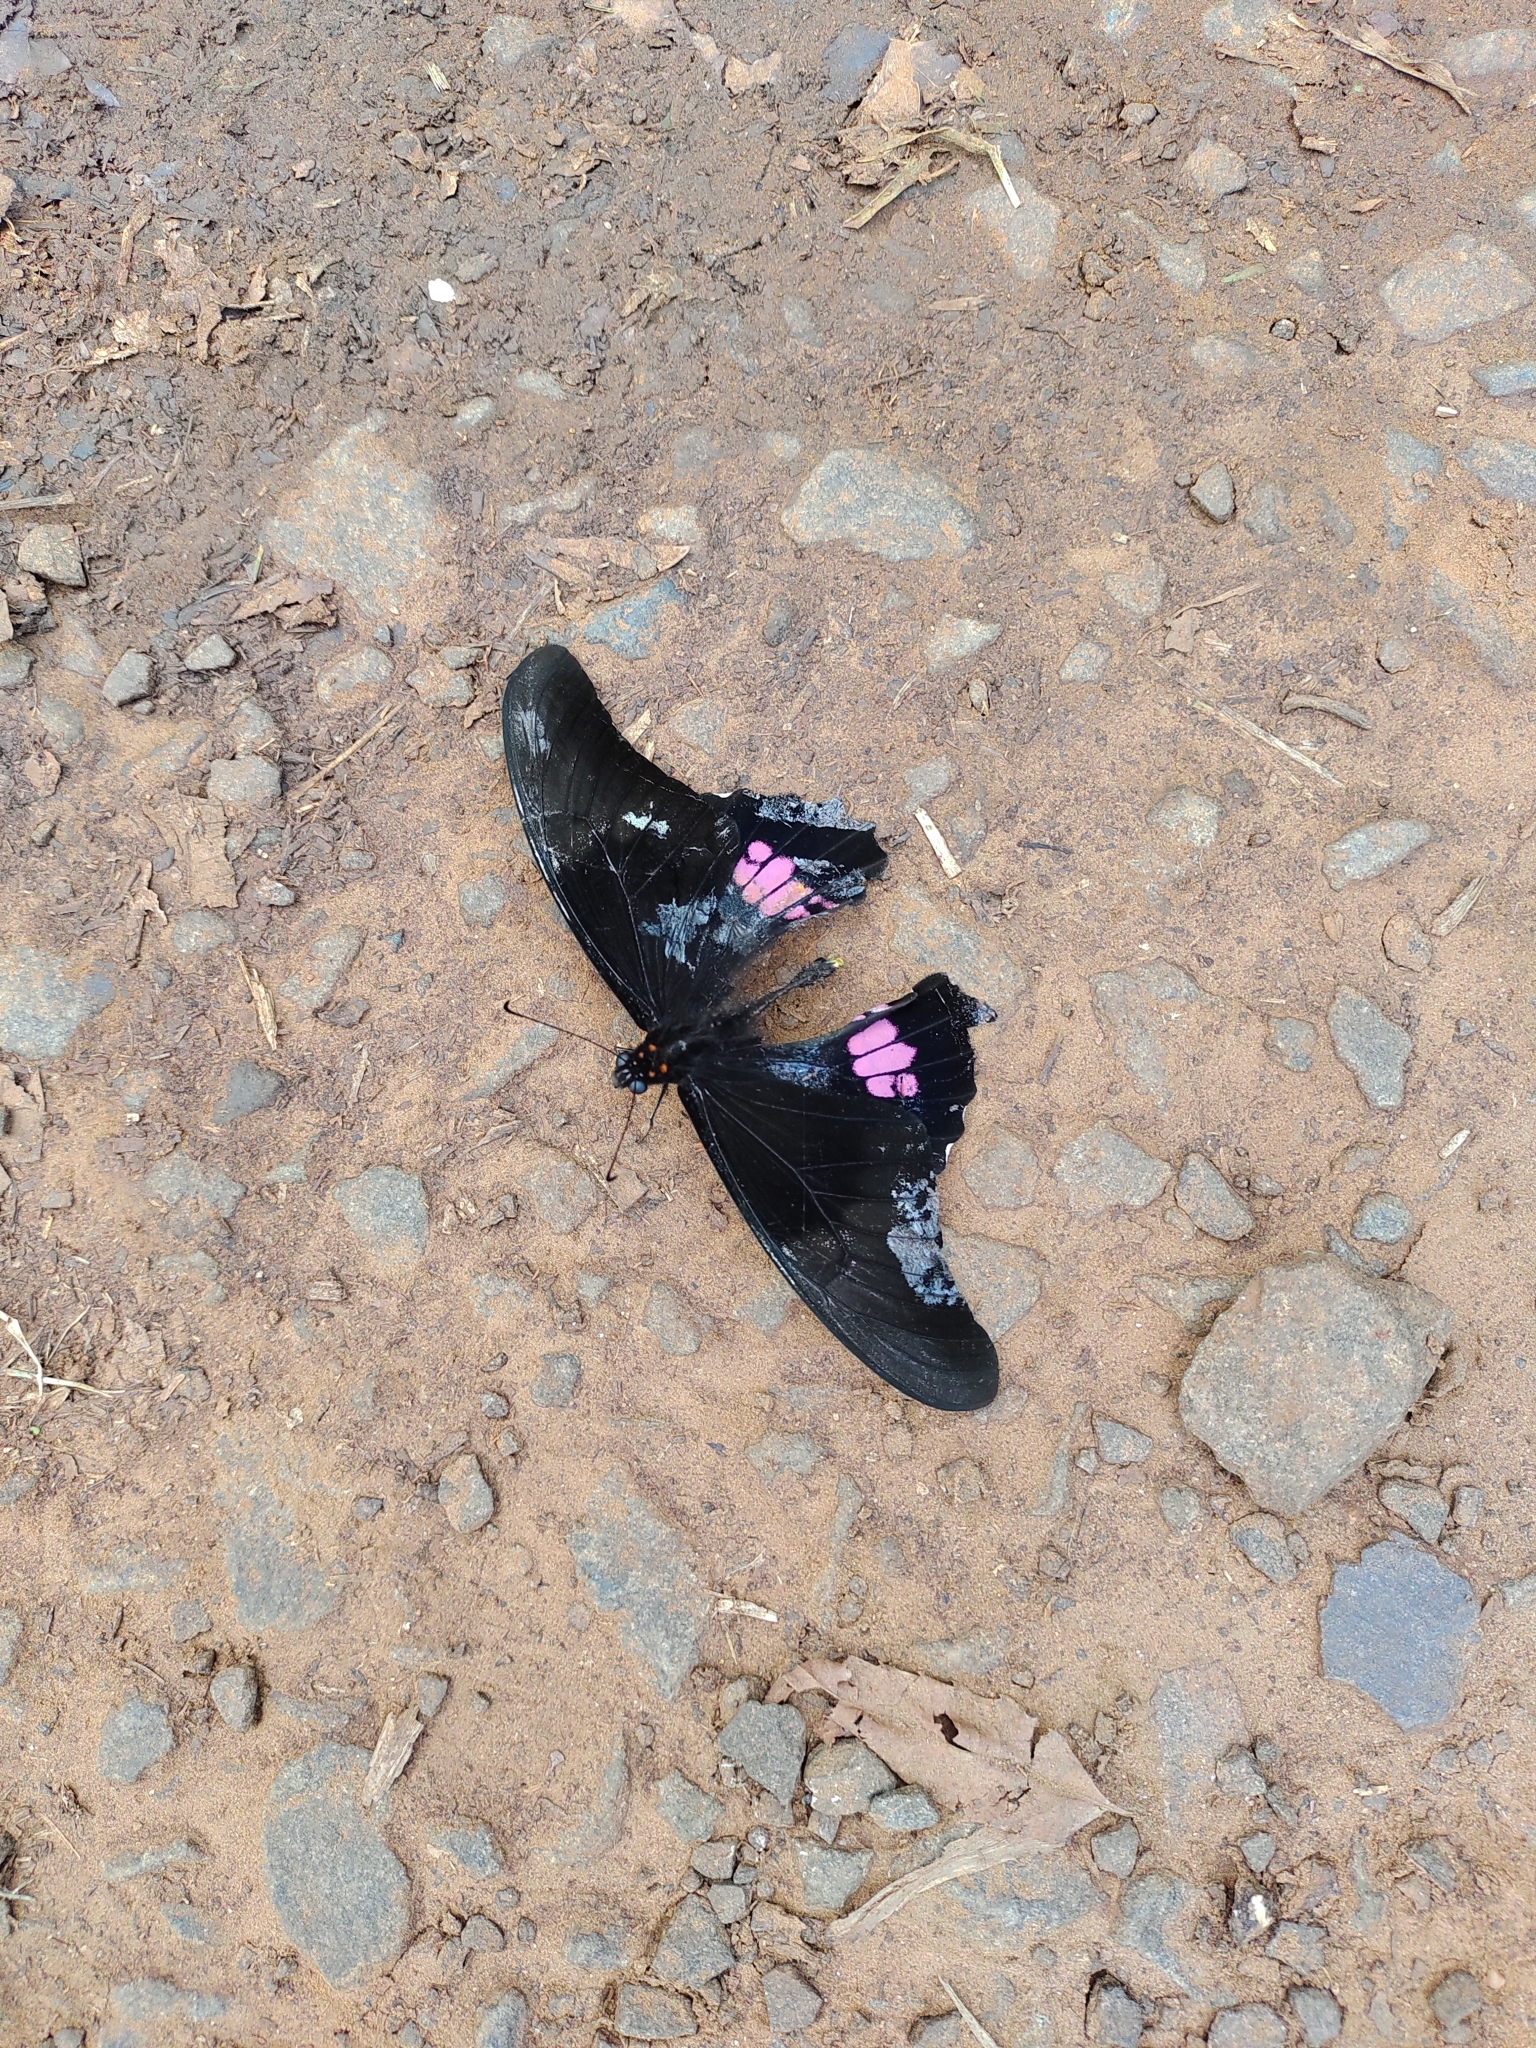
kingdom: Animalia
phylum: Arthropoda
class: Insecta
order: Lepidoptera
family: Papilionidae
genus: Papilio
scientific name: Papilio anchisiades
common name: Idaes swallowtail
